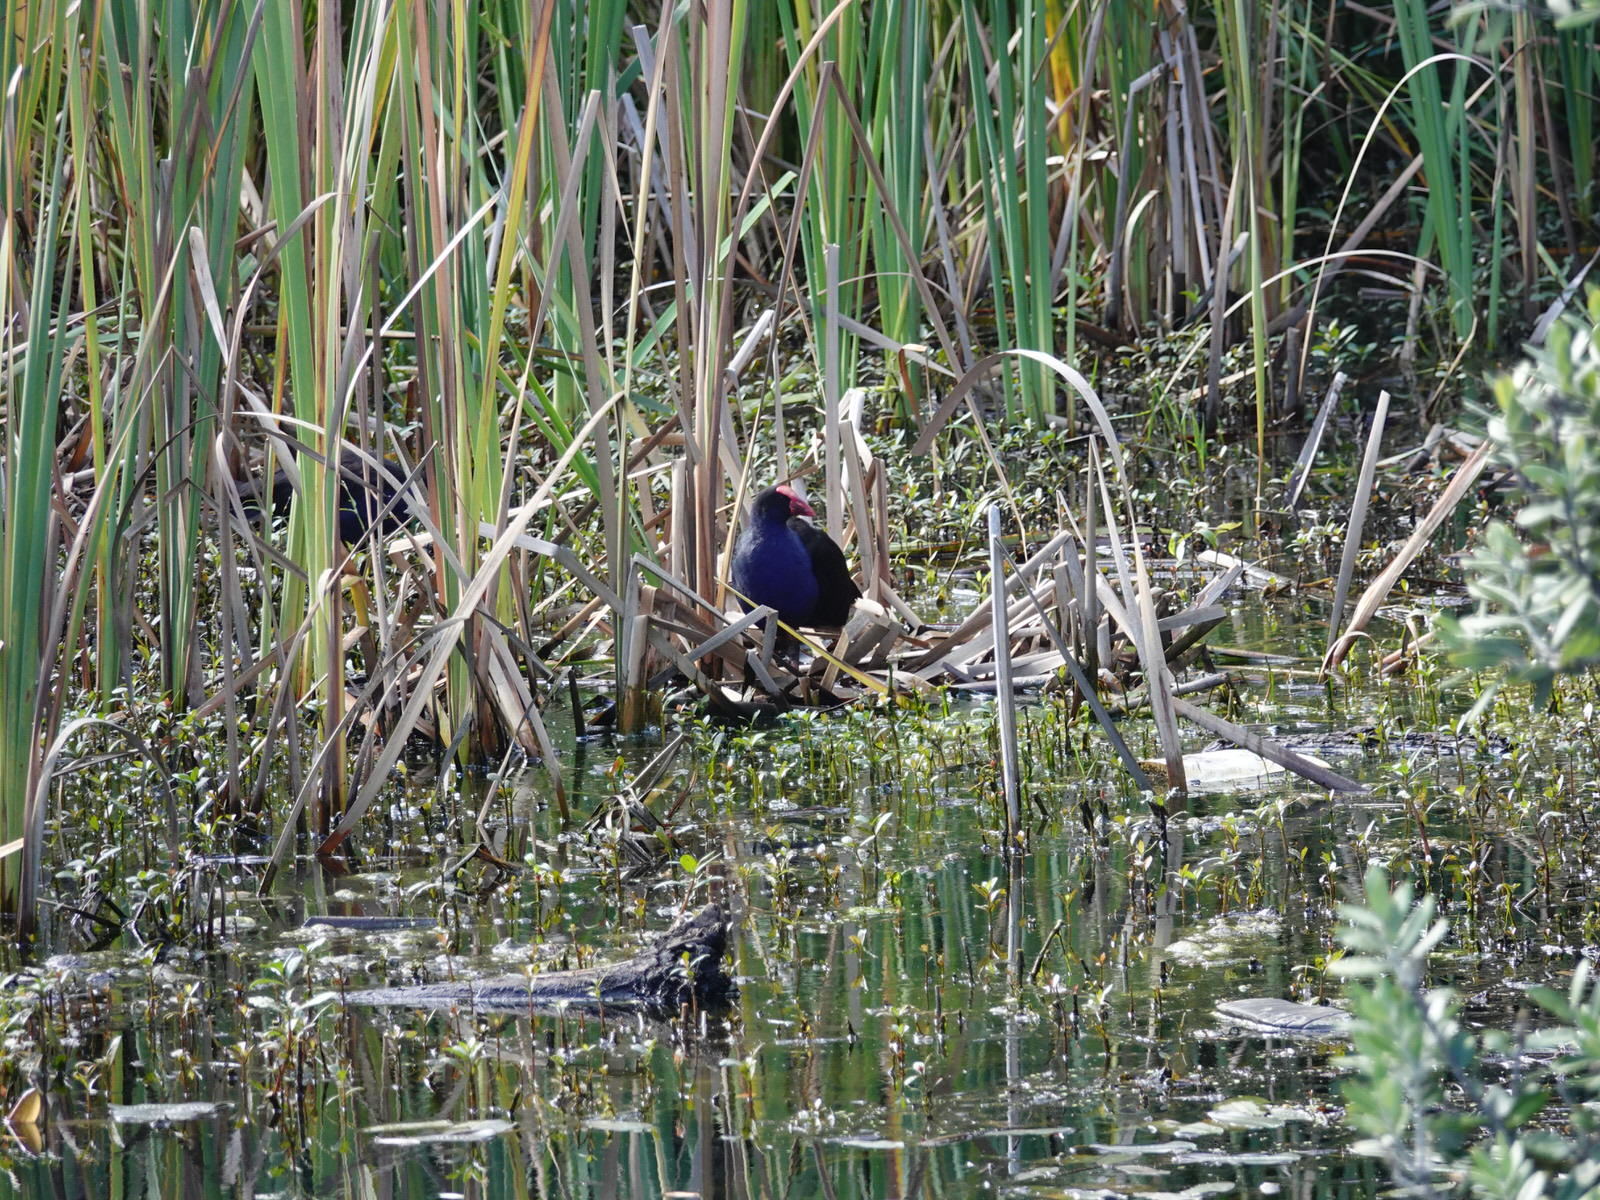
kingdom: Animalia
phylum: Chordata
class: Aves
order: Gruiformes
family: Rallidae
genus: Porphyrio
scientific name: Porphyrio melanotus
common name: Australasian swamphen
